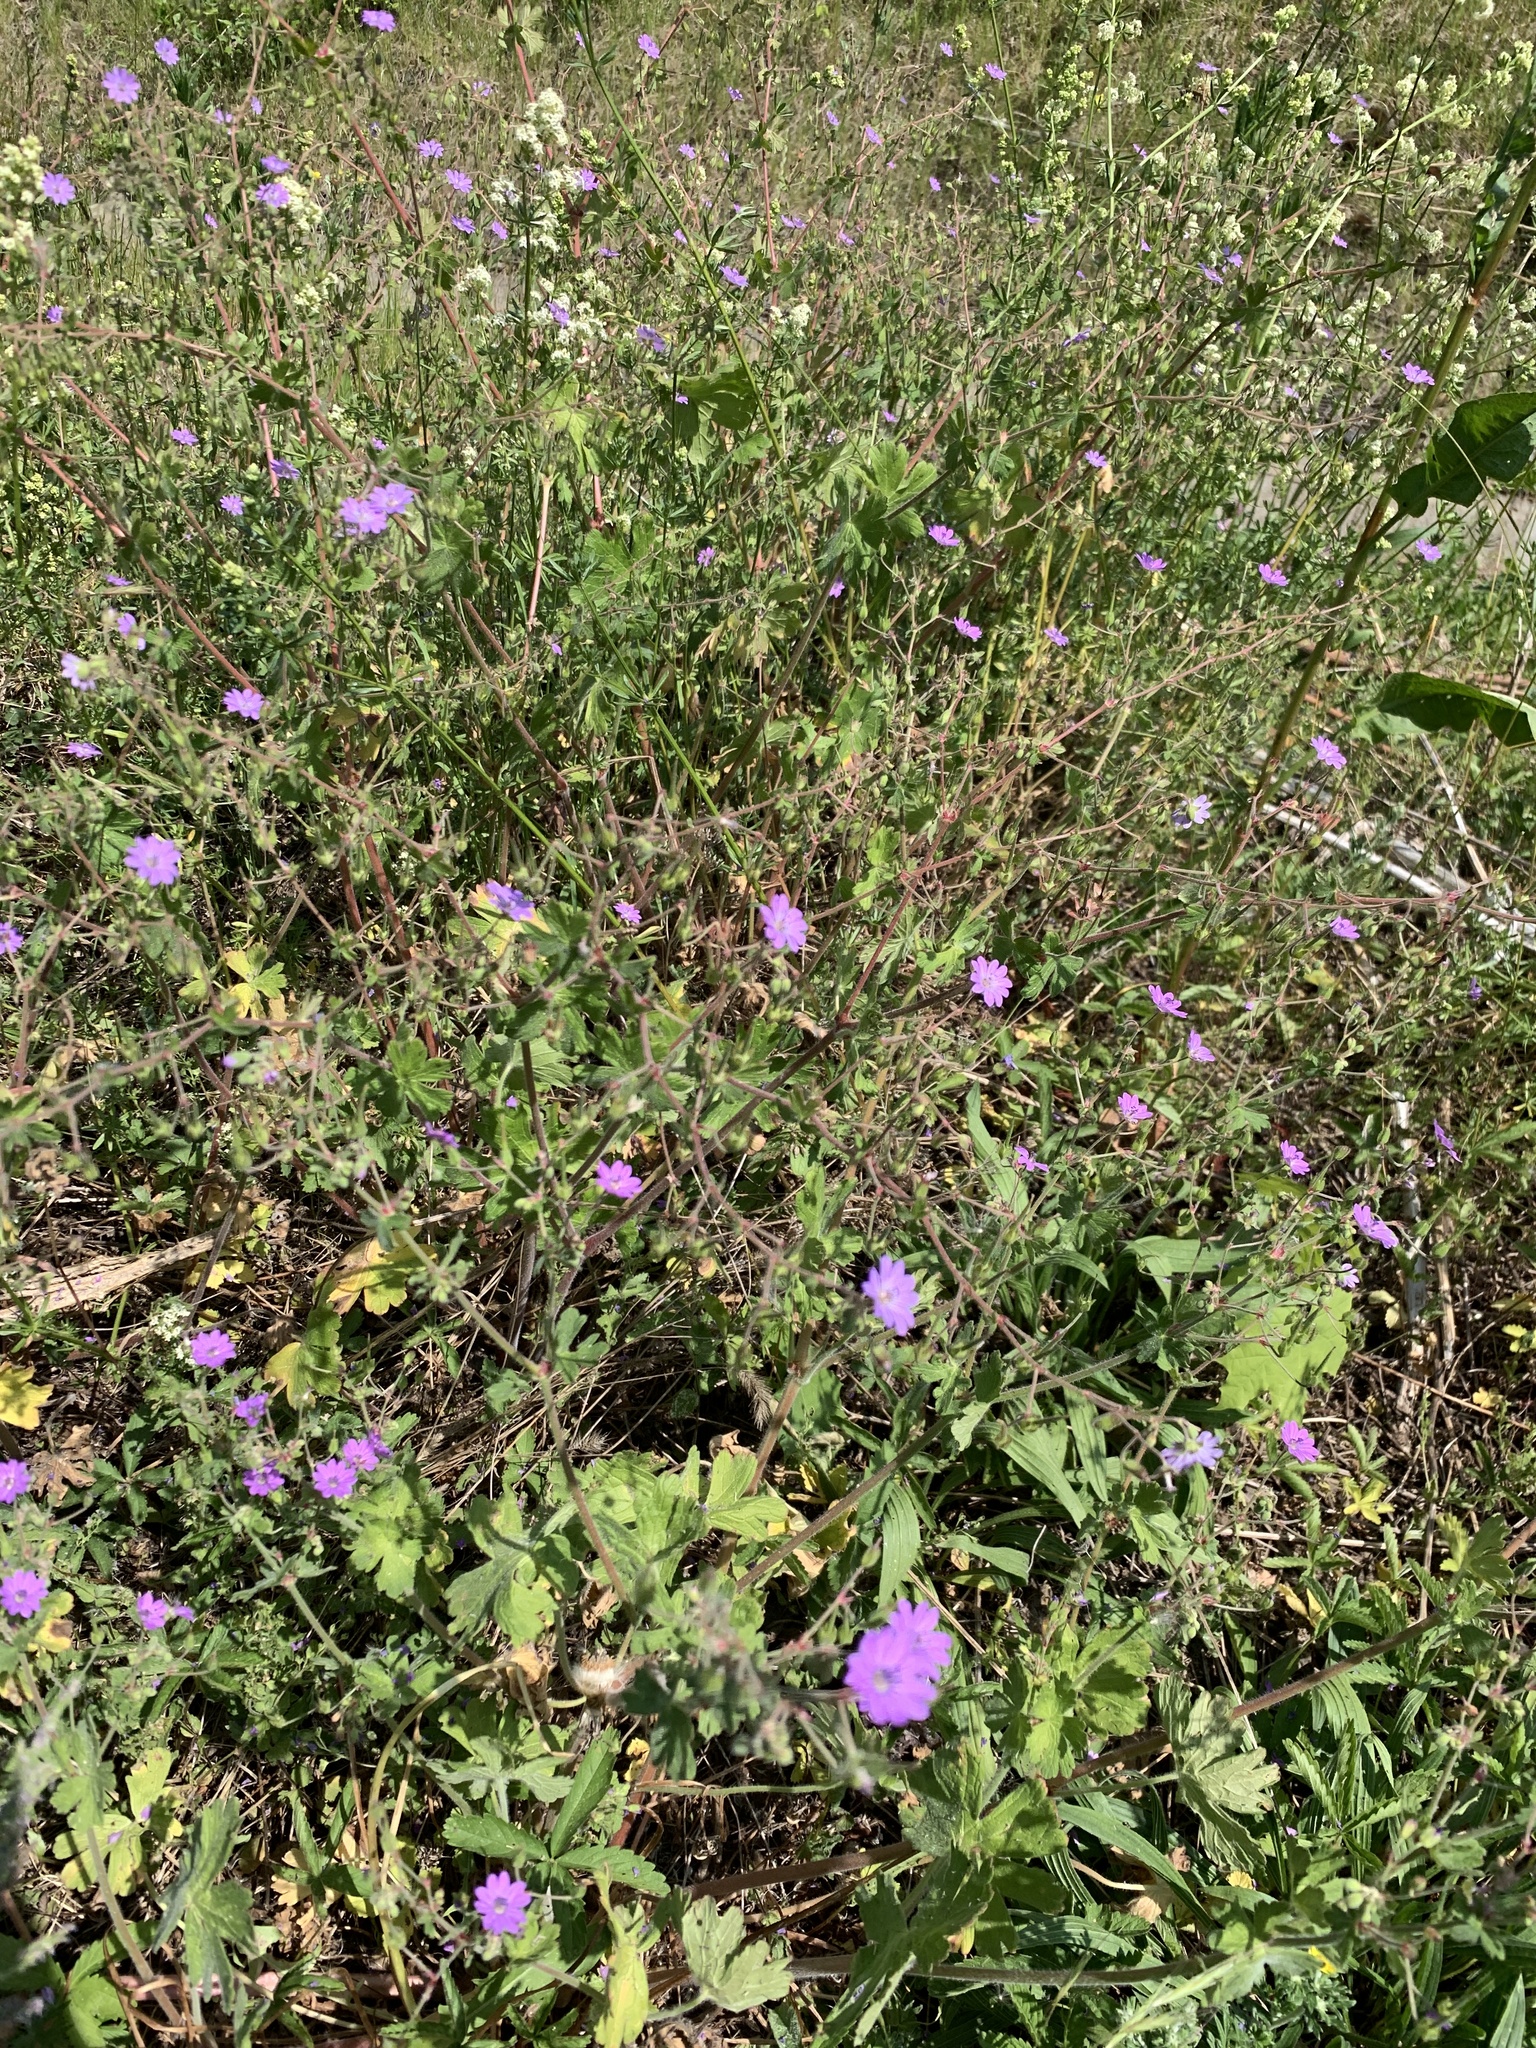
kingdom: Plantae
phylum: Tracheophyta
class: Magnoliopsida
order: Geraniales
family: Geraniaceae
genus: Geranium
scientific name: Geranium pyrenaicum
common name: Hedgerow crane's-bill
